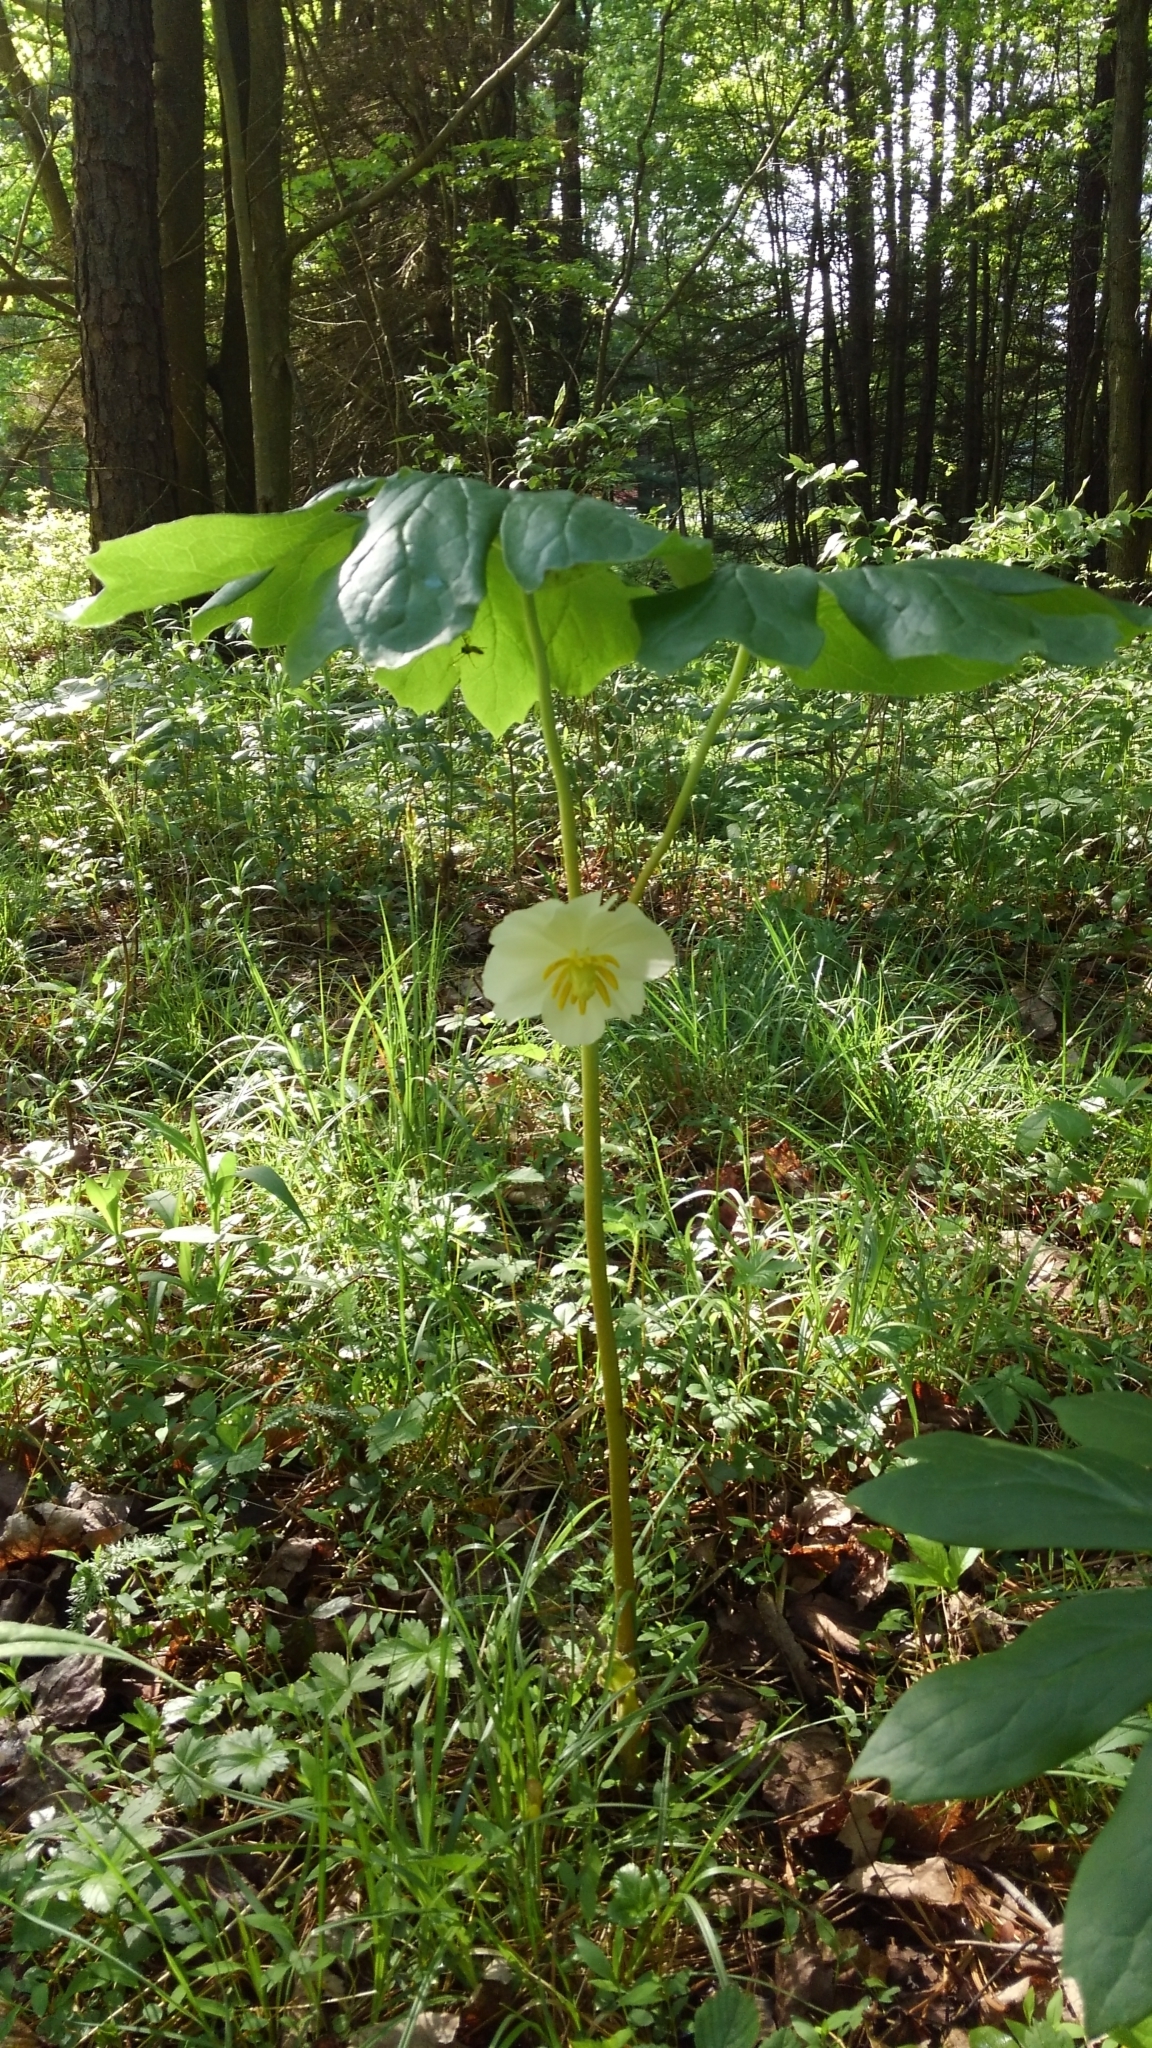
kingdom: Plantae
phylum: Tracheophyta
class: Magnoliopsida
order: Ranunculales
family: Berberidaceae
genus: Podophyllum
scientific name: Podophyllum peltatum
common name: Wild mandrake
